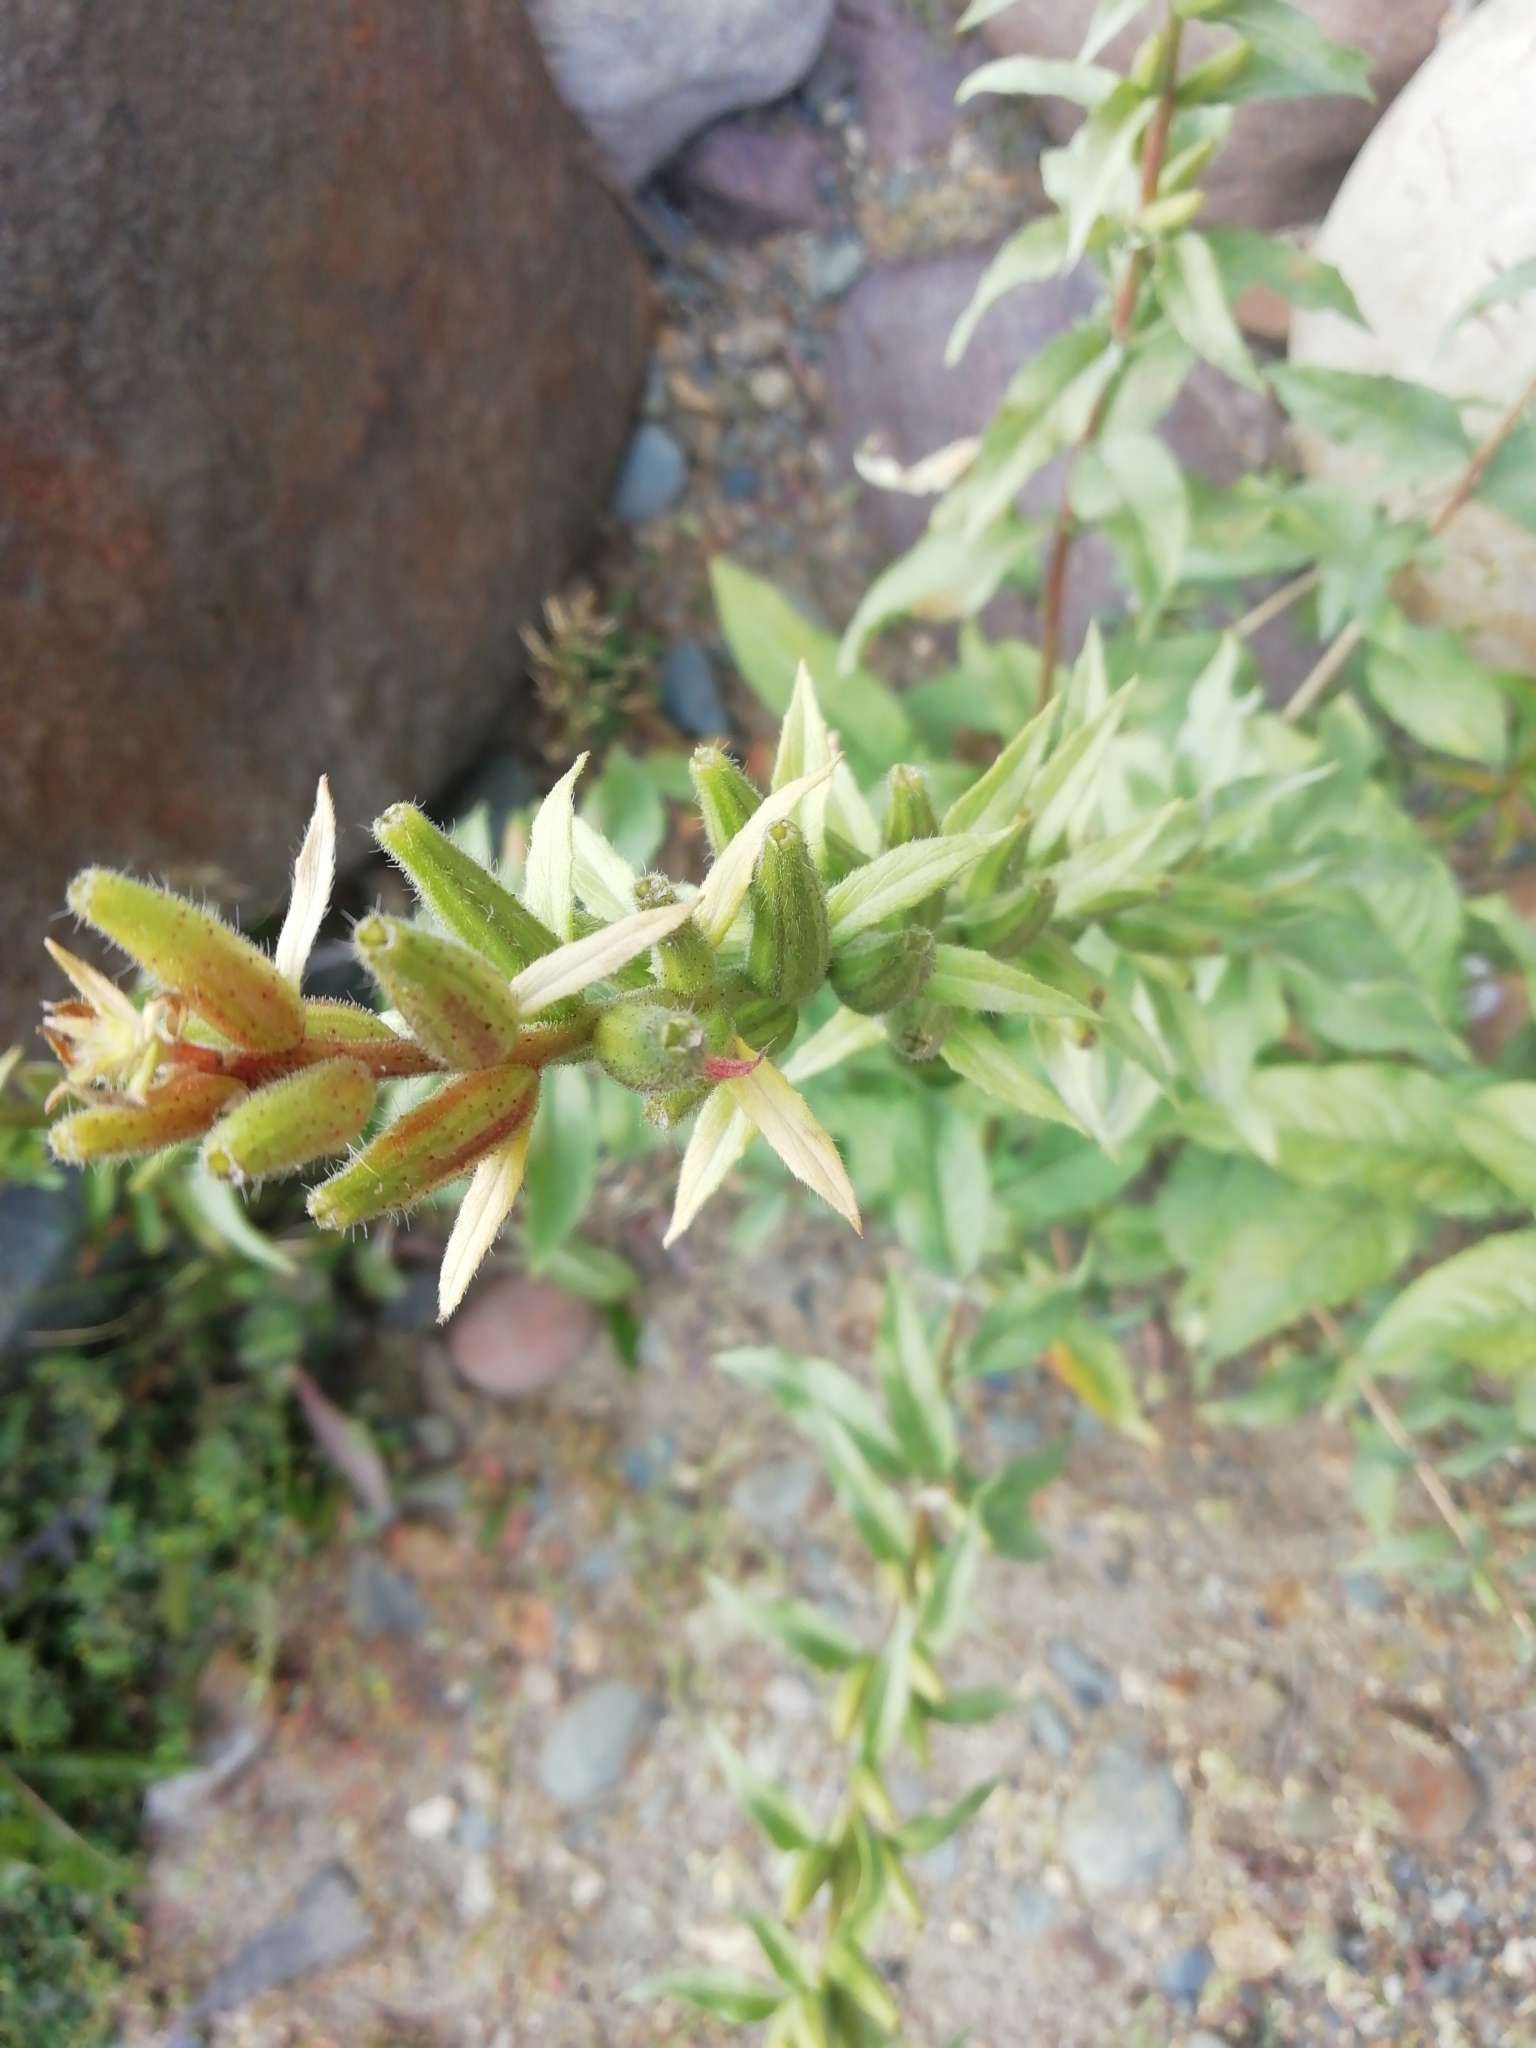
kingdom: Plantae
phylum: Tracheophyta
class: Magnoliopsida
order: Myrtales
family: Onagraceae
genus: Oenothera
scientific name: Oenothera rubricaulis
